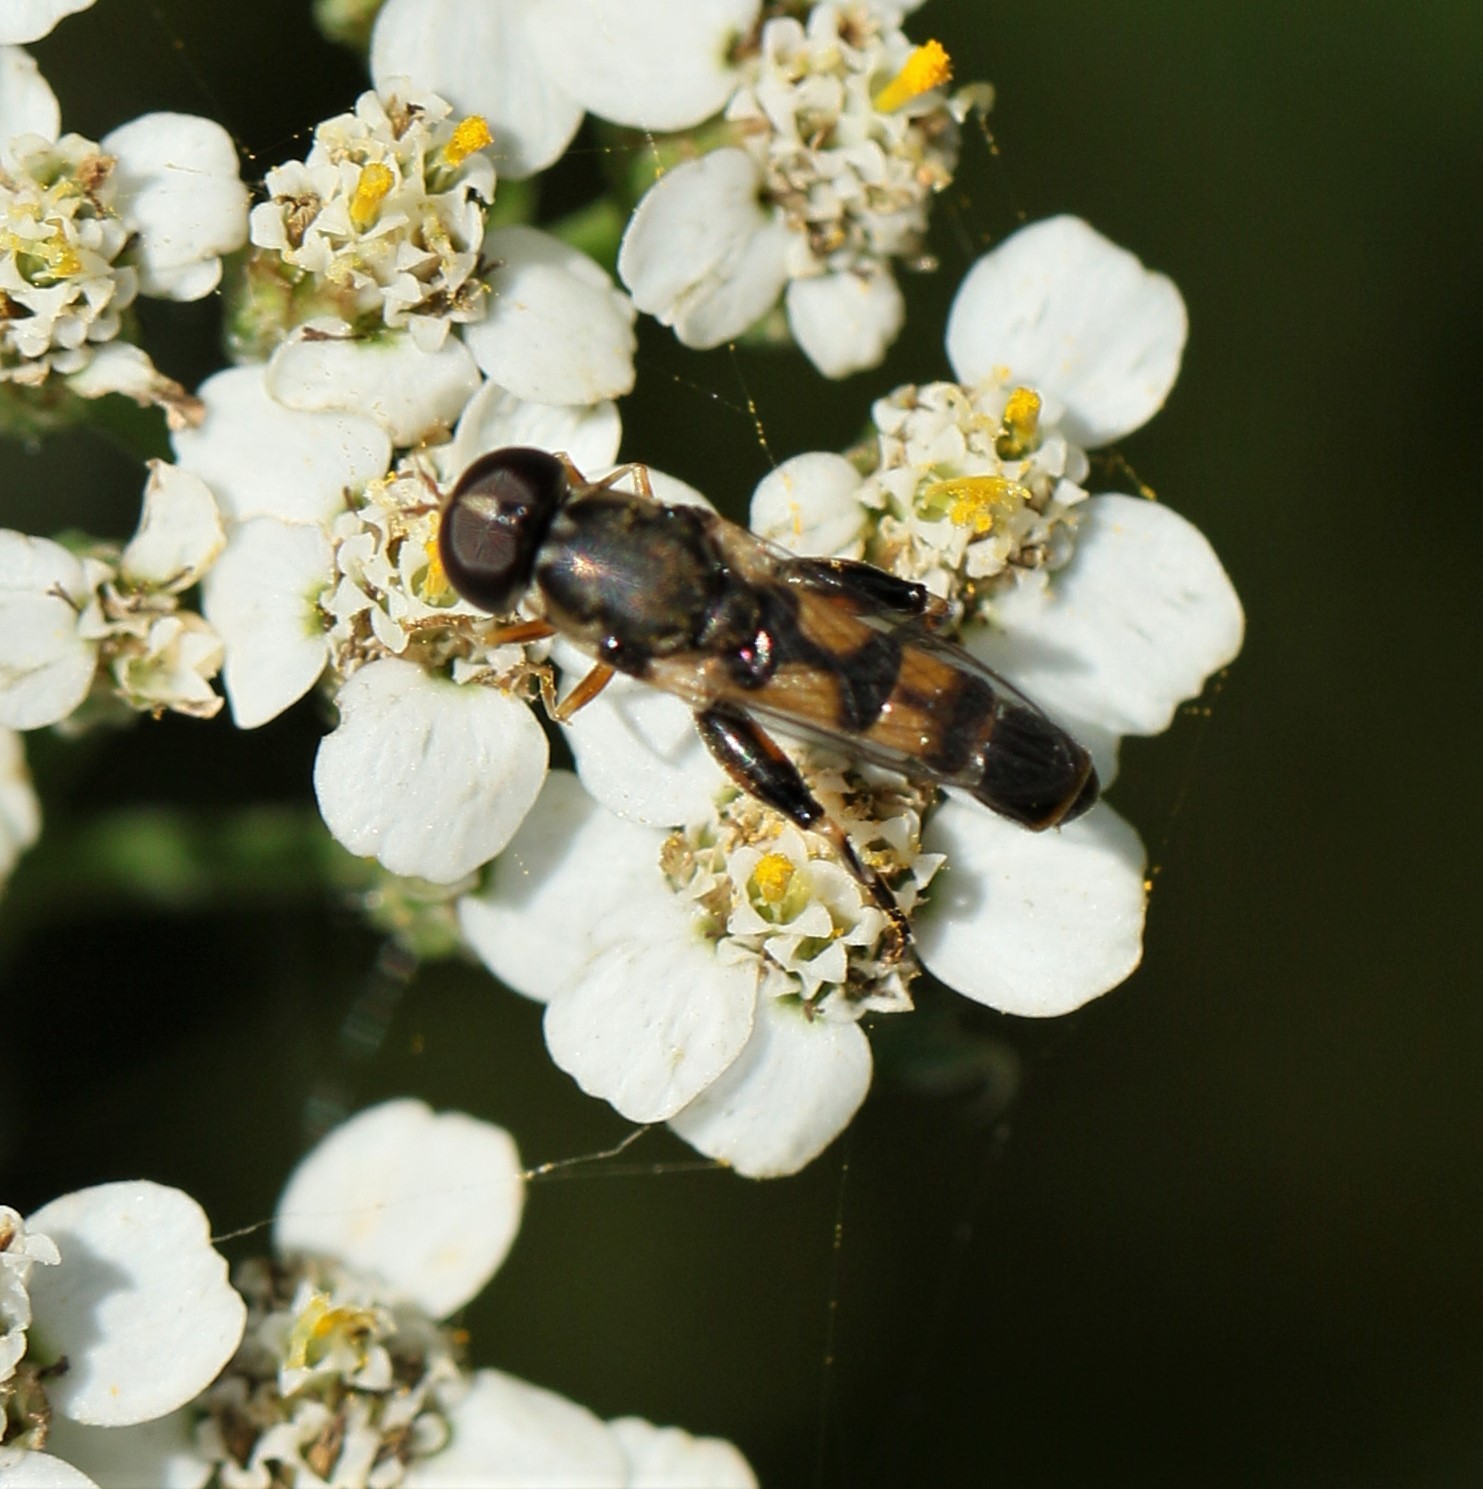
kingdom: Animalia
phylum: Arthropoda
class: Insecta
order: Diptera
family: Syrphidae
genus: Syritta
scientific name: Syritta pipiens
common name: Hover fly
